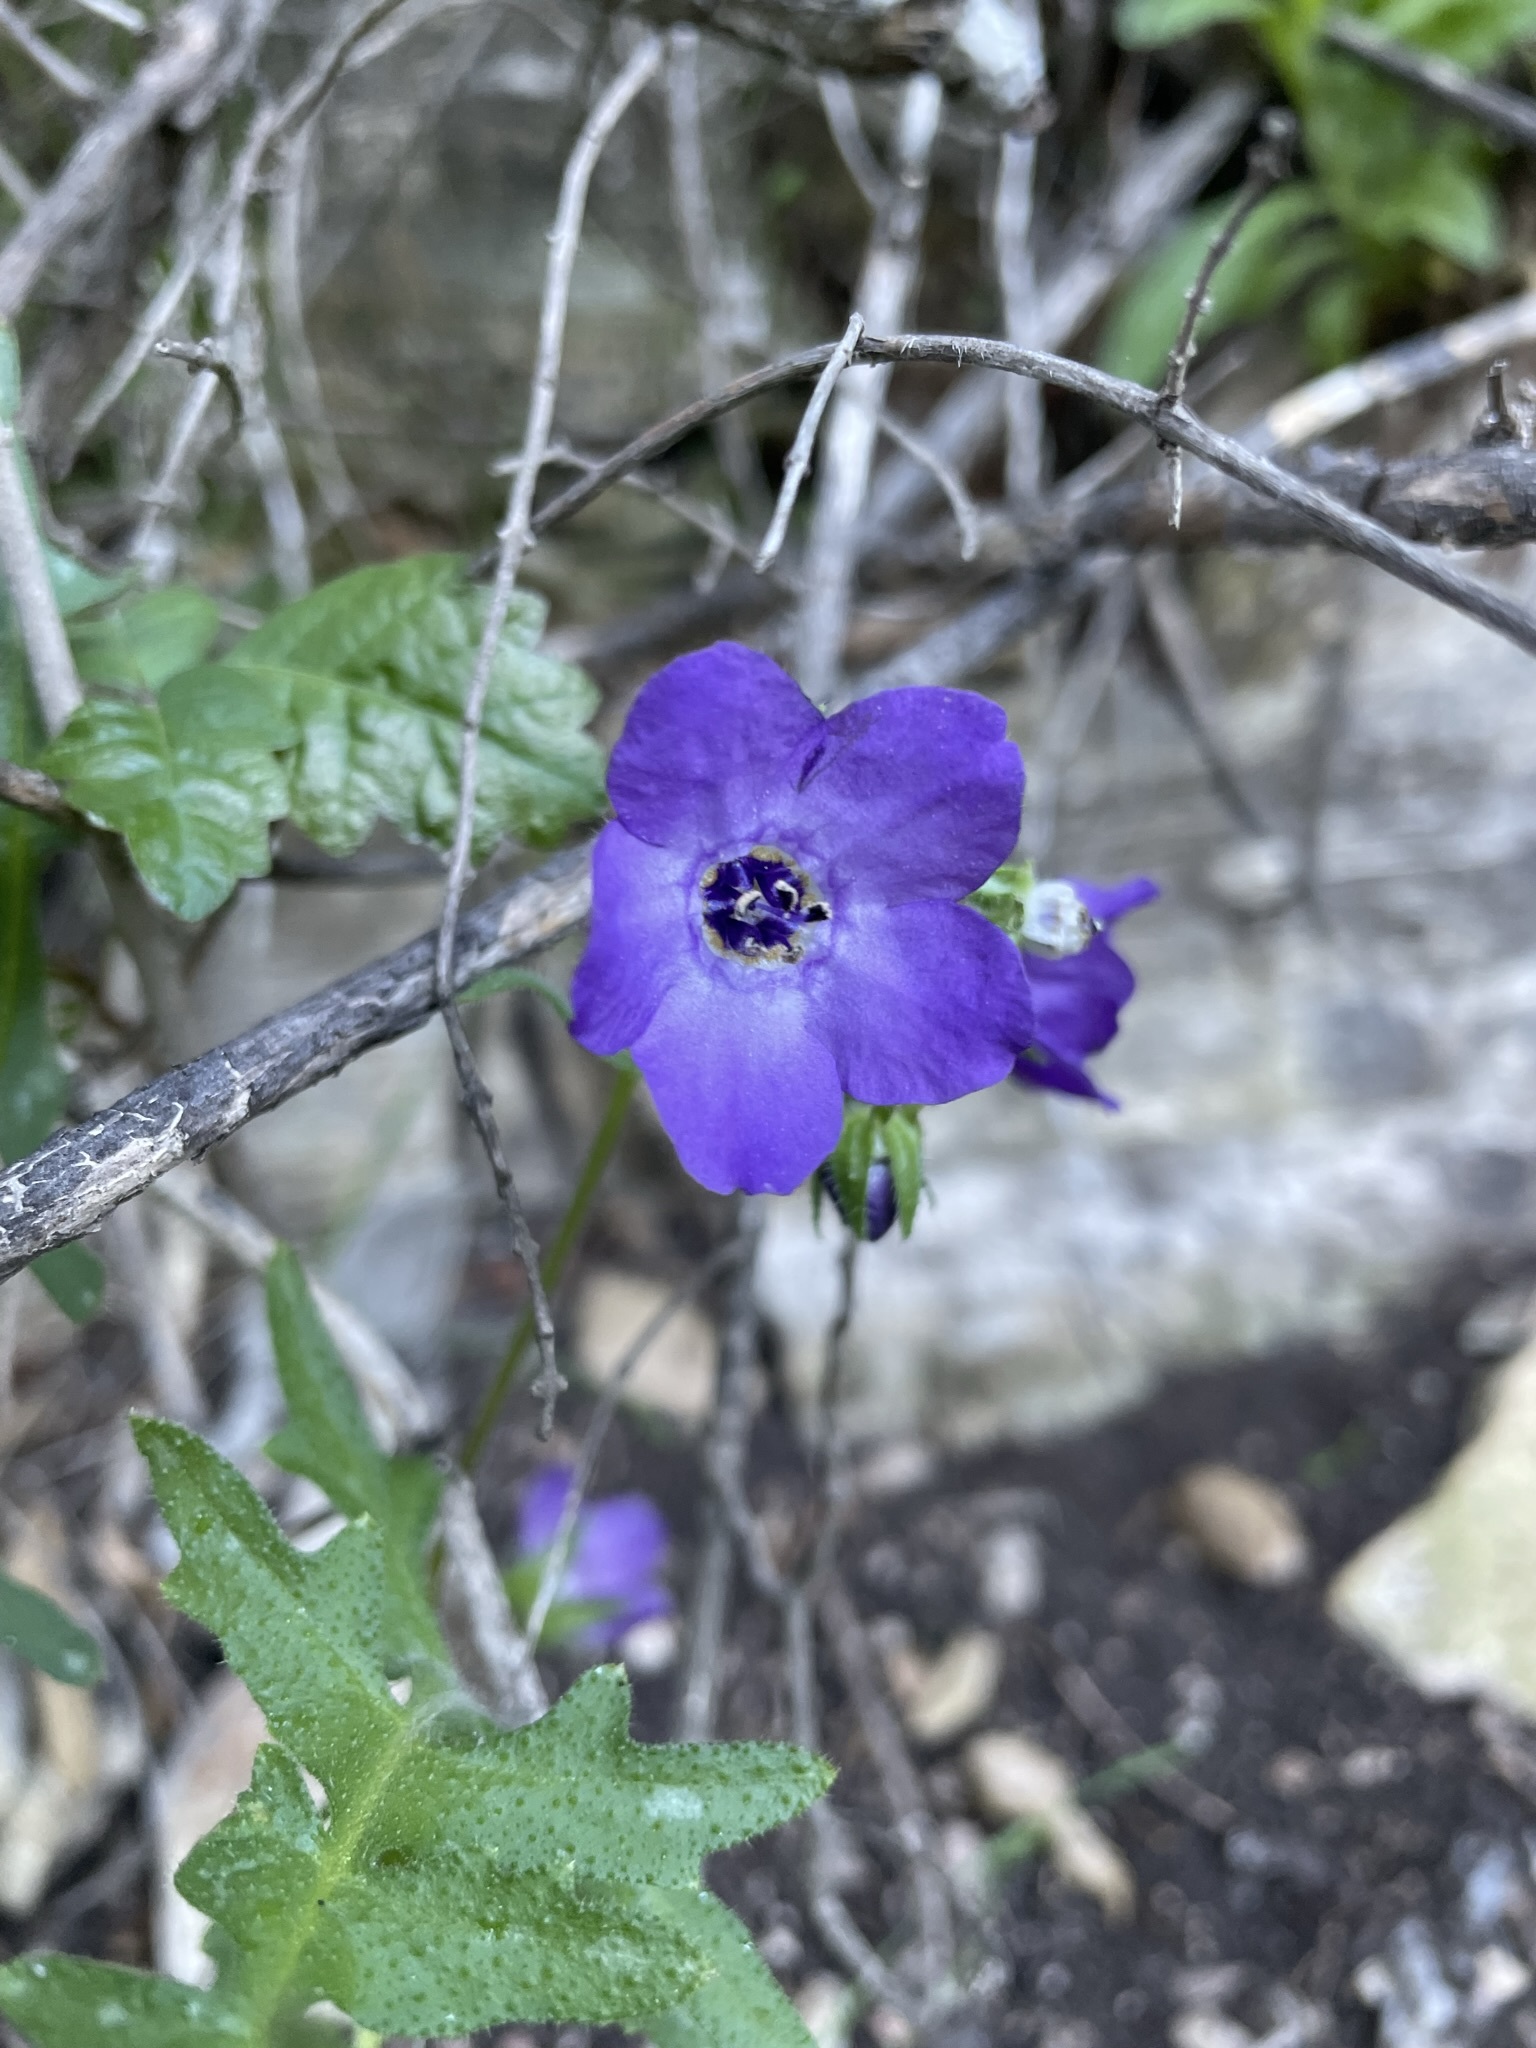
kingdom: Plantae
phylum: Tracheophyta
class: Magnoliopsida
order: Boraginales
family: Hydrophyllaceae
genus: Pholistoma
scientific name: Pholistoma auritum
